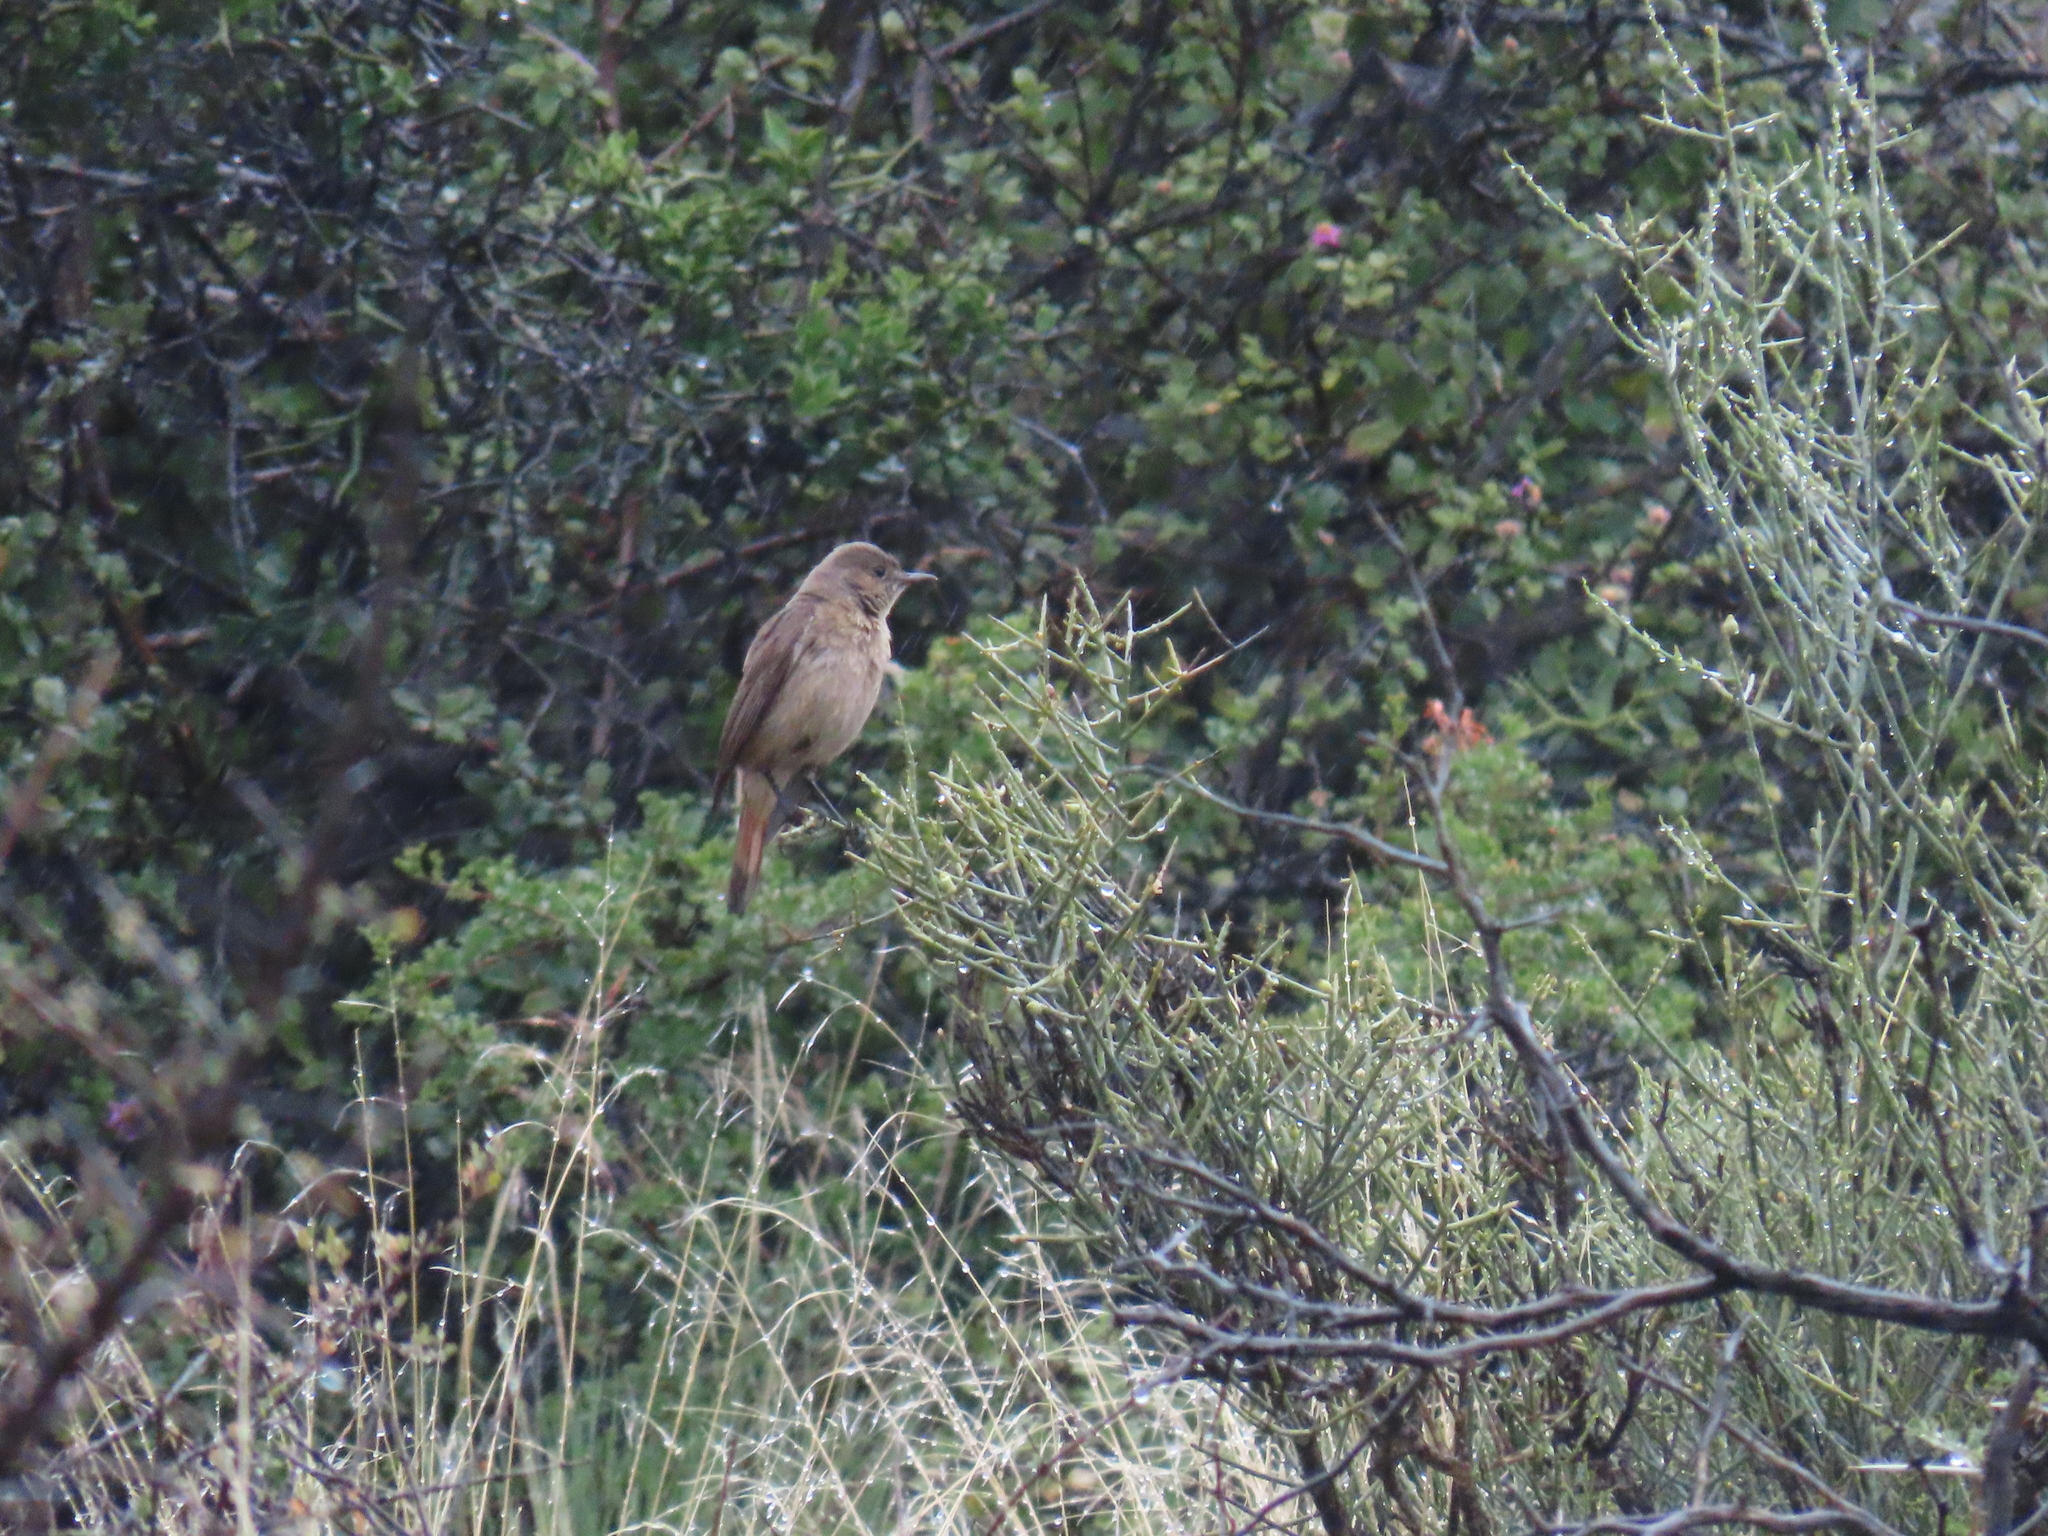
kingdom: Animalia
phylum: Chordata
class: Aves
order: Passeriformes
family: Muscicapidae
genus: Oenanthe
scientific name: Oenanthe familiaris
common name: Familiar chat
